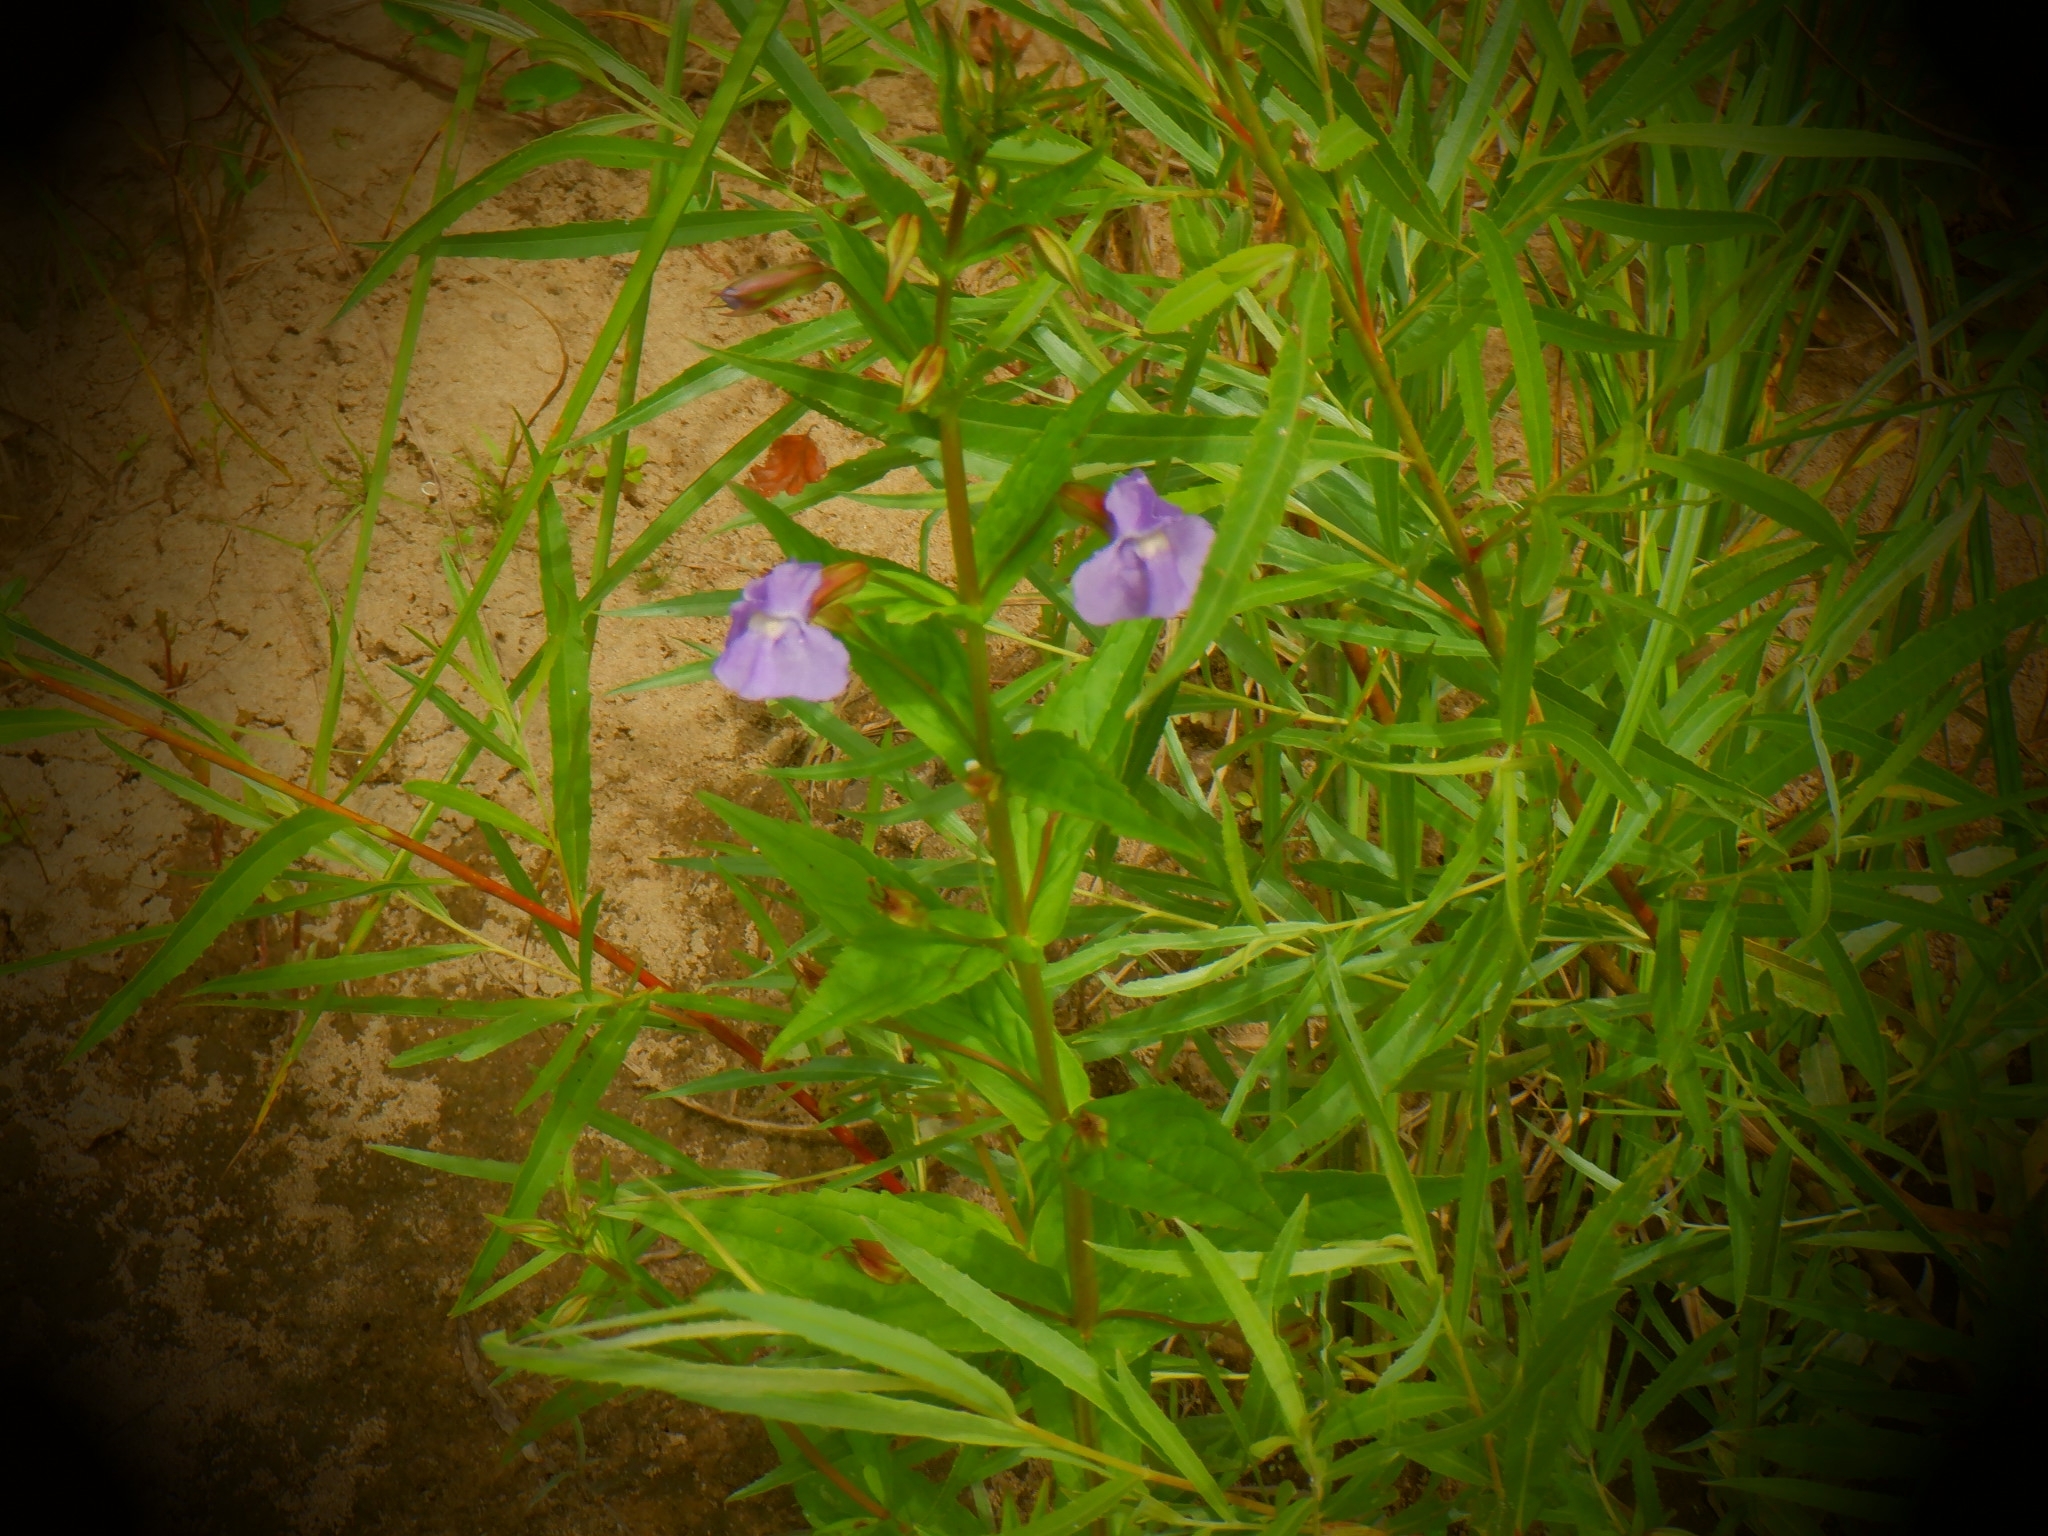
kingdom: Plantae
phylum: Tracheophyta
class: Magnoliopsida
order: Lamiales
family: Phrymaceae
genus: Mimulus
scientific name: Mimulus ringens
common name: Allegheny monkeyflower
